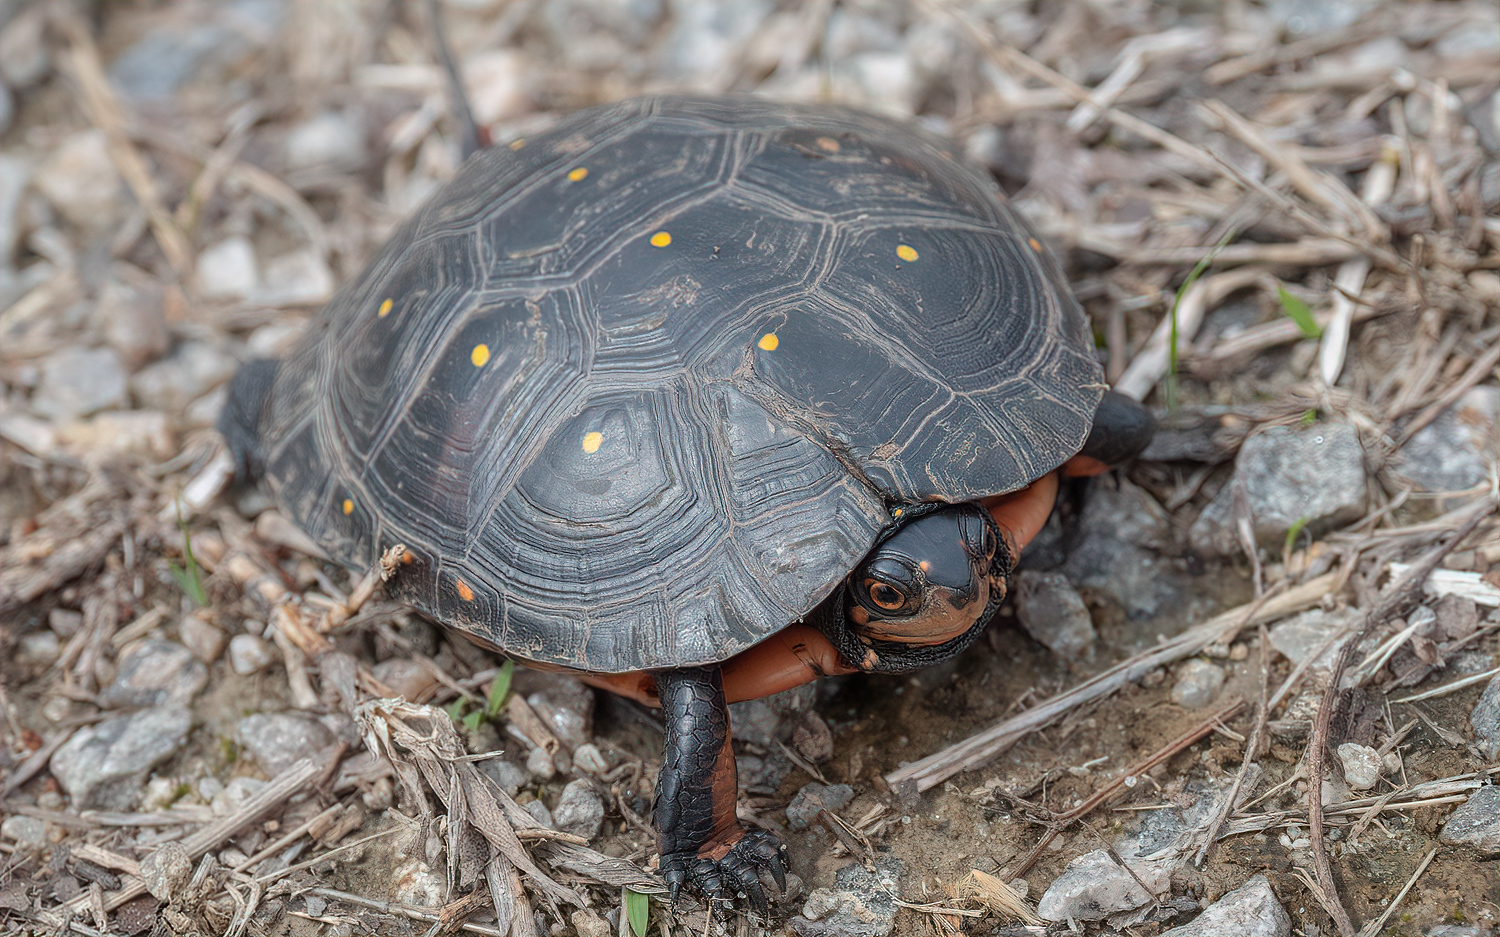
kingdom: Animalia
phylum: Chordata
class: Testudines
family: Emydidae
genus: Clemmys
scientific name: Clemmys guttata
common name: Spotted turtle
